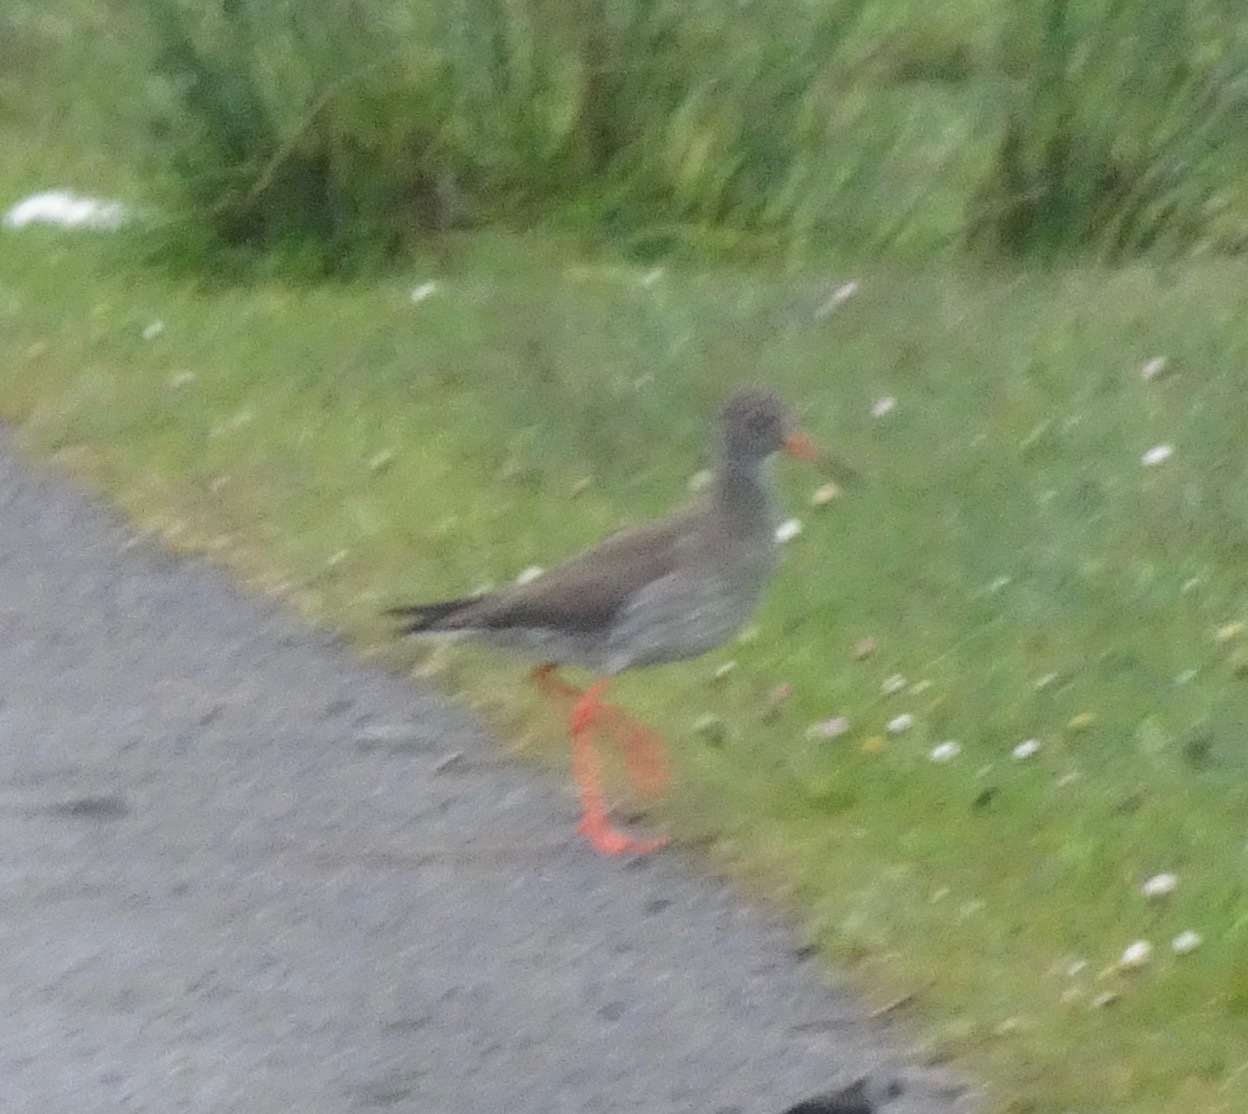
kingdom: Animalia
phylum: Chordata
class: Aves
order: Charadriiformes
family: Scolopacidae
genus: Tringa
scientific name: Tringa totanus
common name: Common redshank
